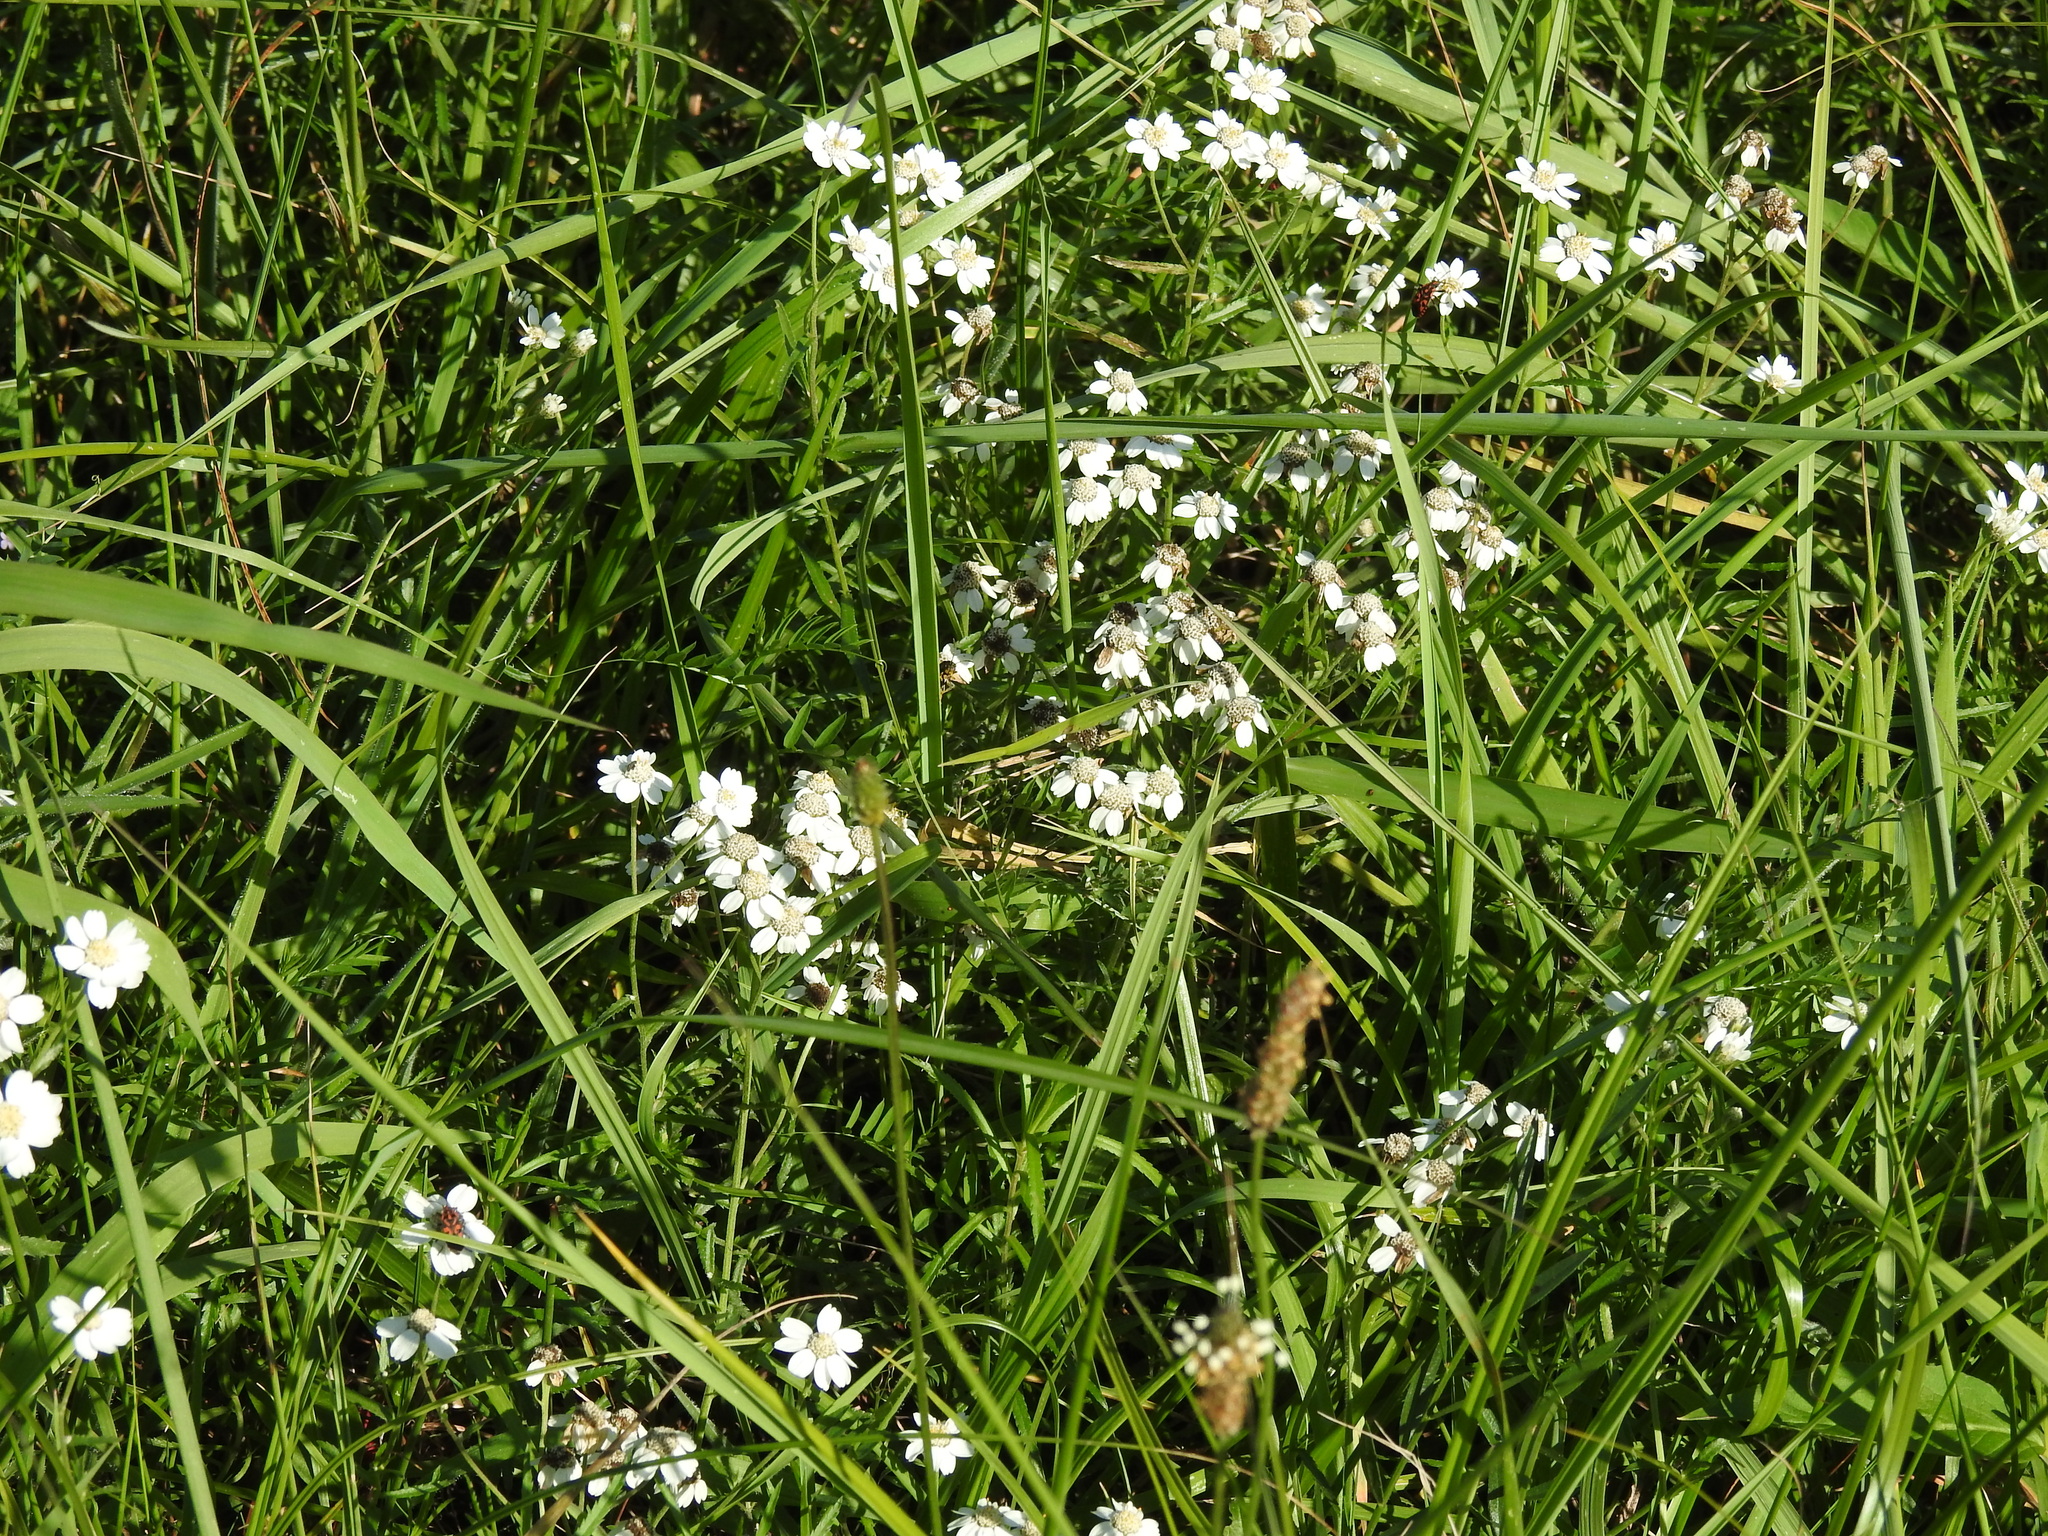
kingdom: Plantae
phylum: Tracheophyta
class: Magnoliopsida
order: Asterales
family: Asteraceae
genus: Achillea
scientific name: Achillea ptarmica
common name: Sneezeweed
